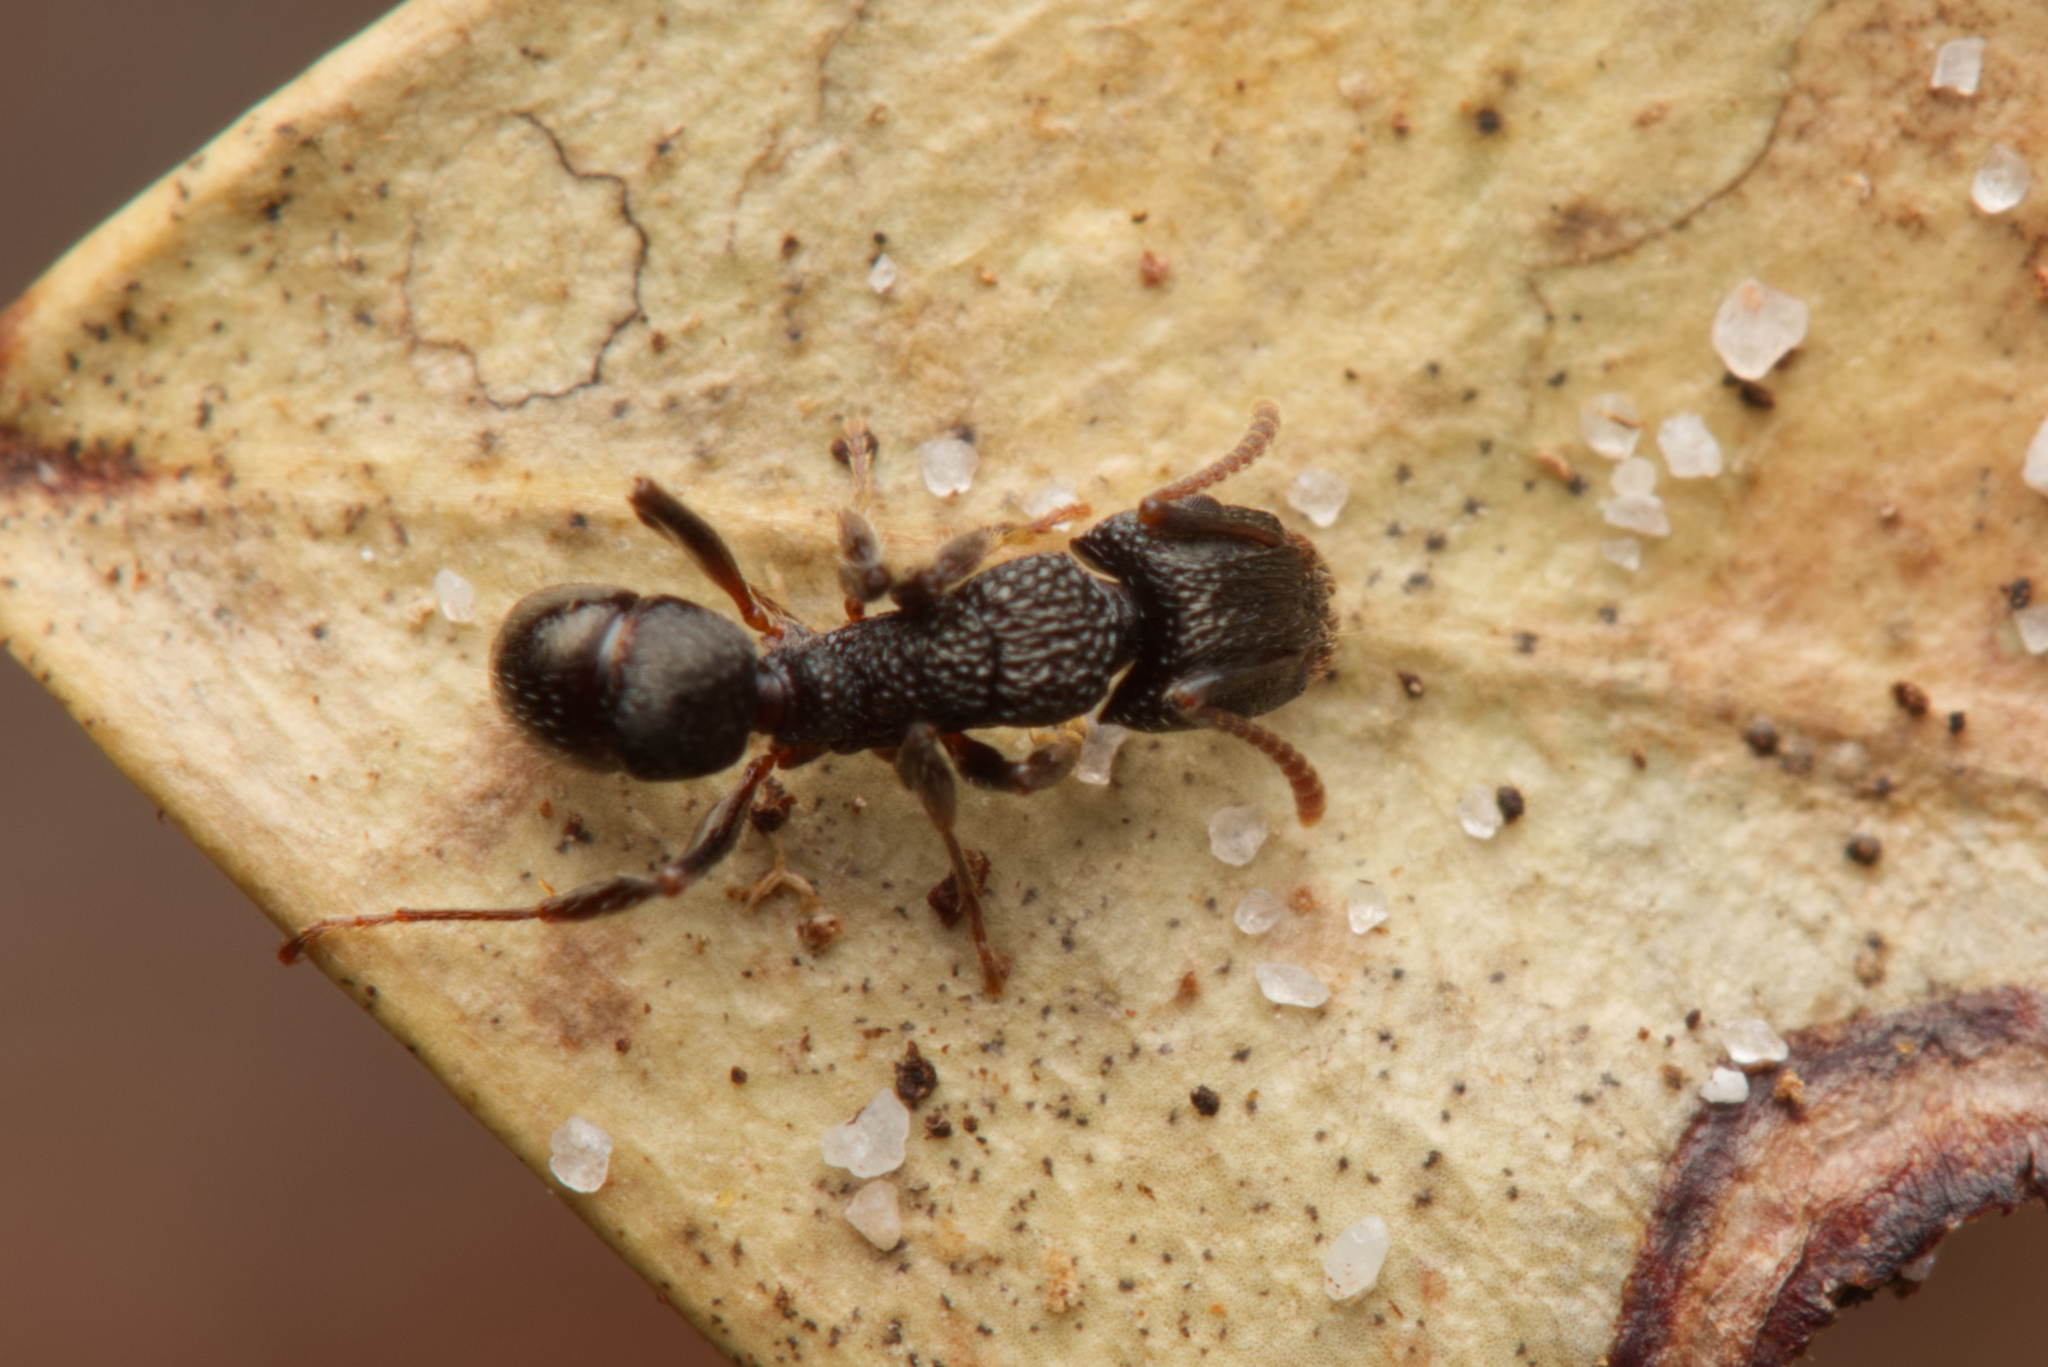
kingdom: Animalia
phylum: Arthropoda
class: Insecta
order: Hymenoptera
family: Formicidae
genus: Rhytidoponera
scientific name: Rhytidoponera victoriae
